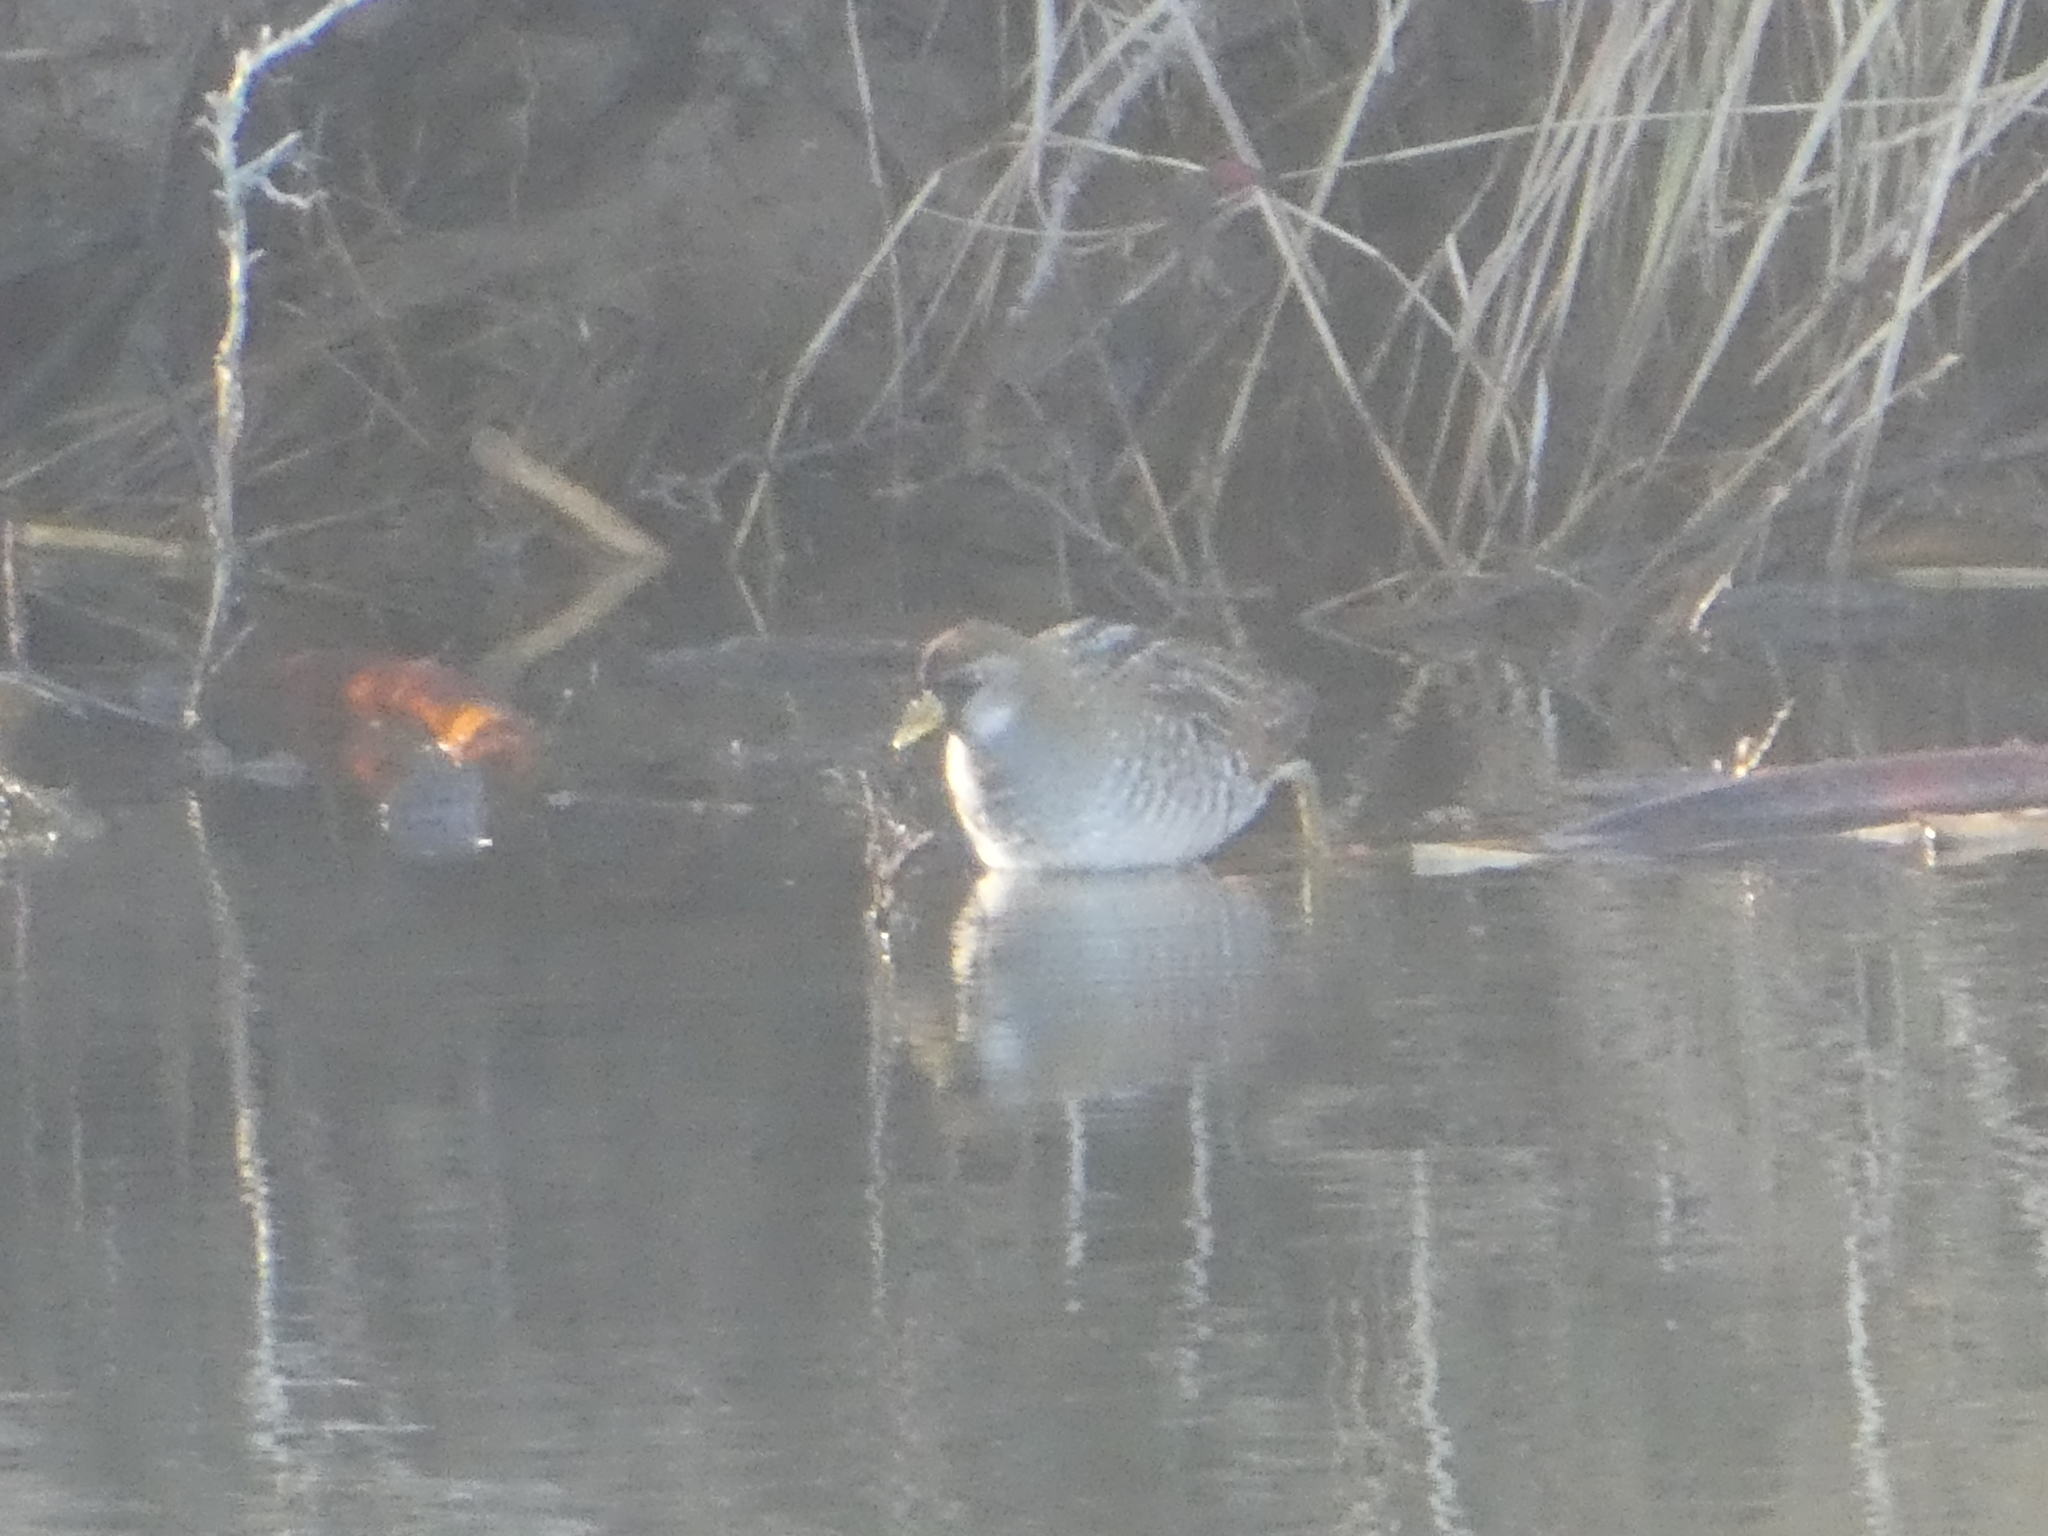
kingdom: Animalia
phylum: Chordata
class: Aves
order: Gruiformes
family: Rallidae
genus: Porzana
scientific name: Porzana carolina
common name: Sora
